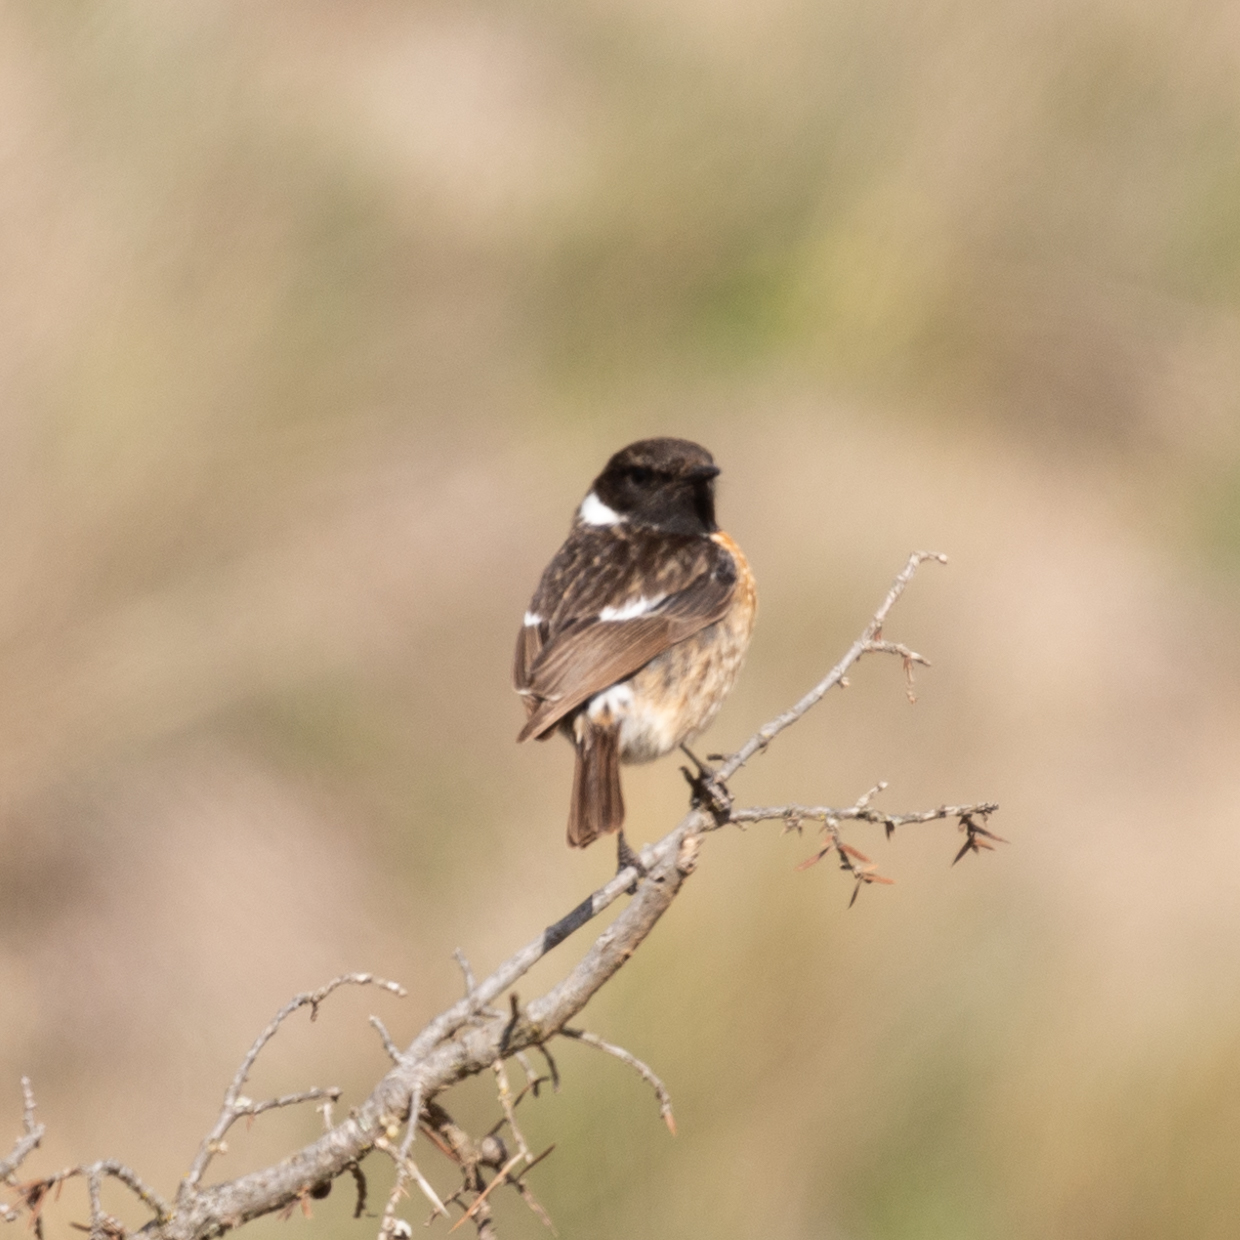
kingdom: Animalia
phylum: Chordata
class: Aves
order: Passeriformes
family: Muscicapidae
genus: Saxicola
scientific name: Saxicola rubicola
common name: European stonechat
